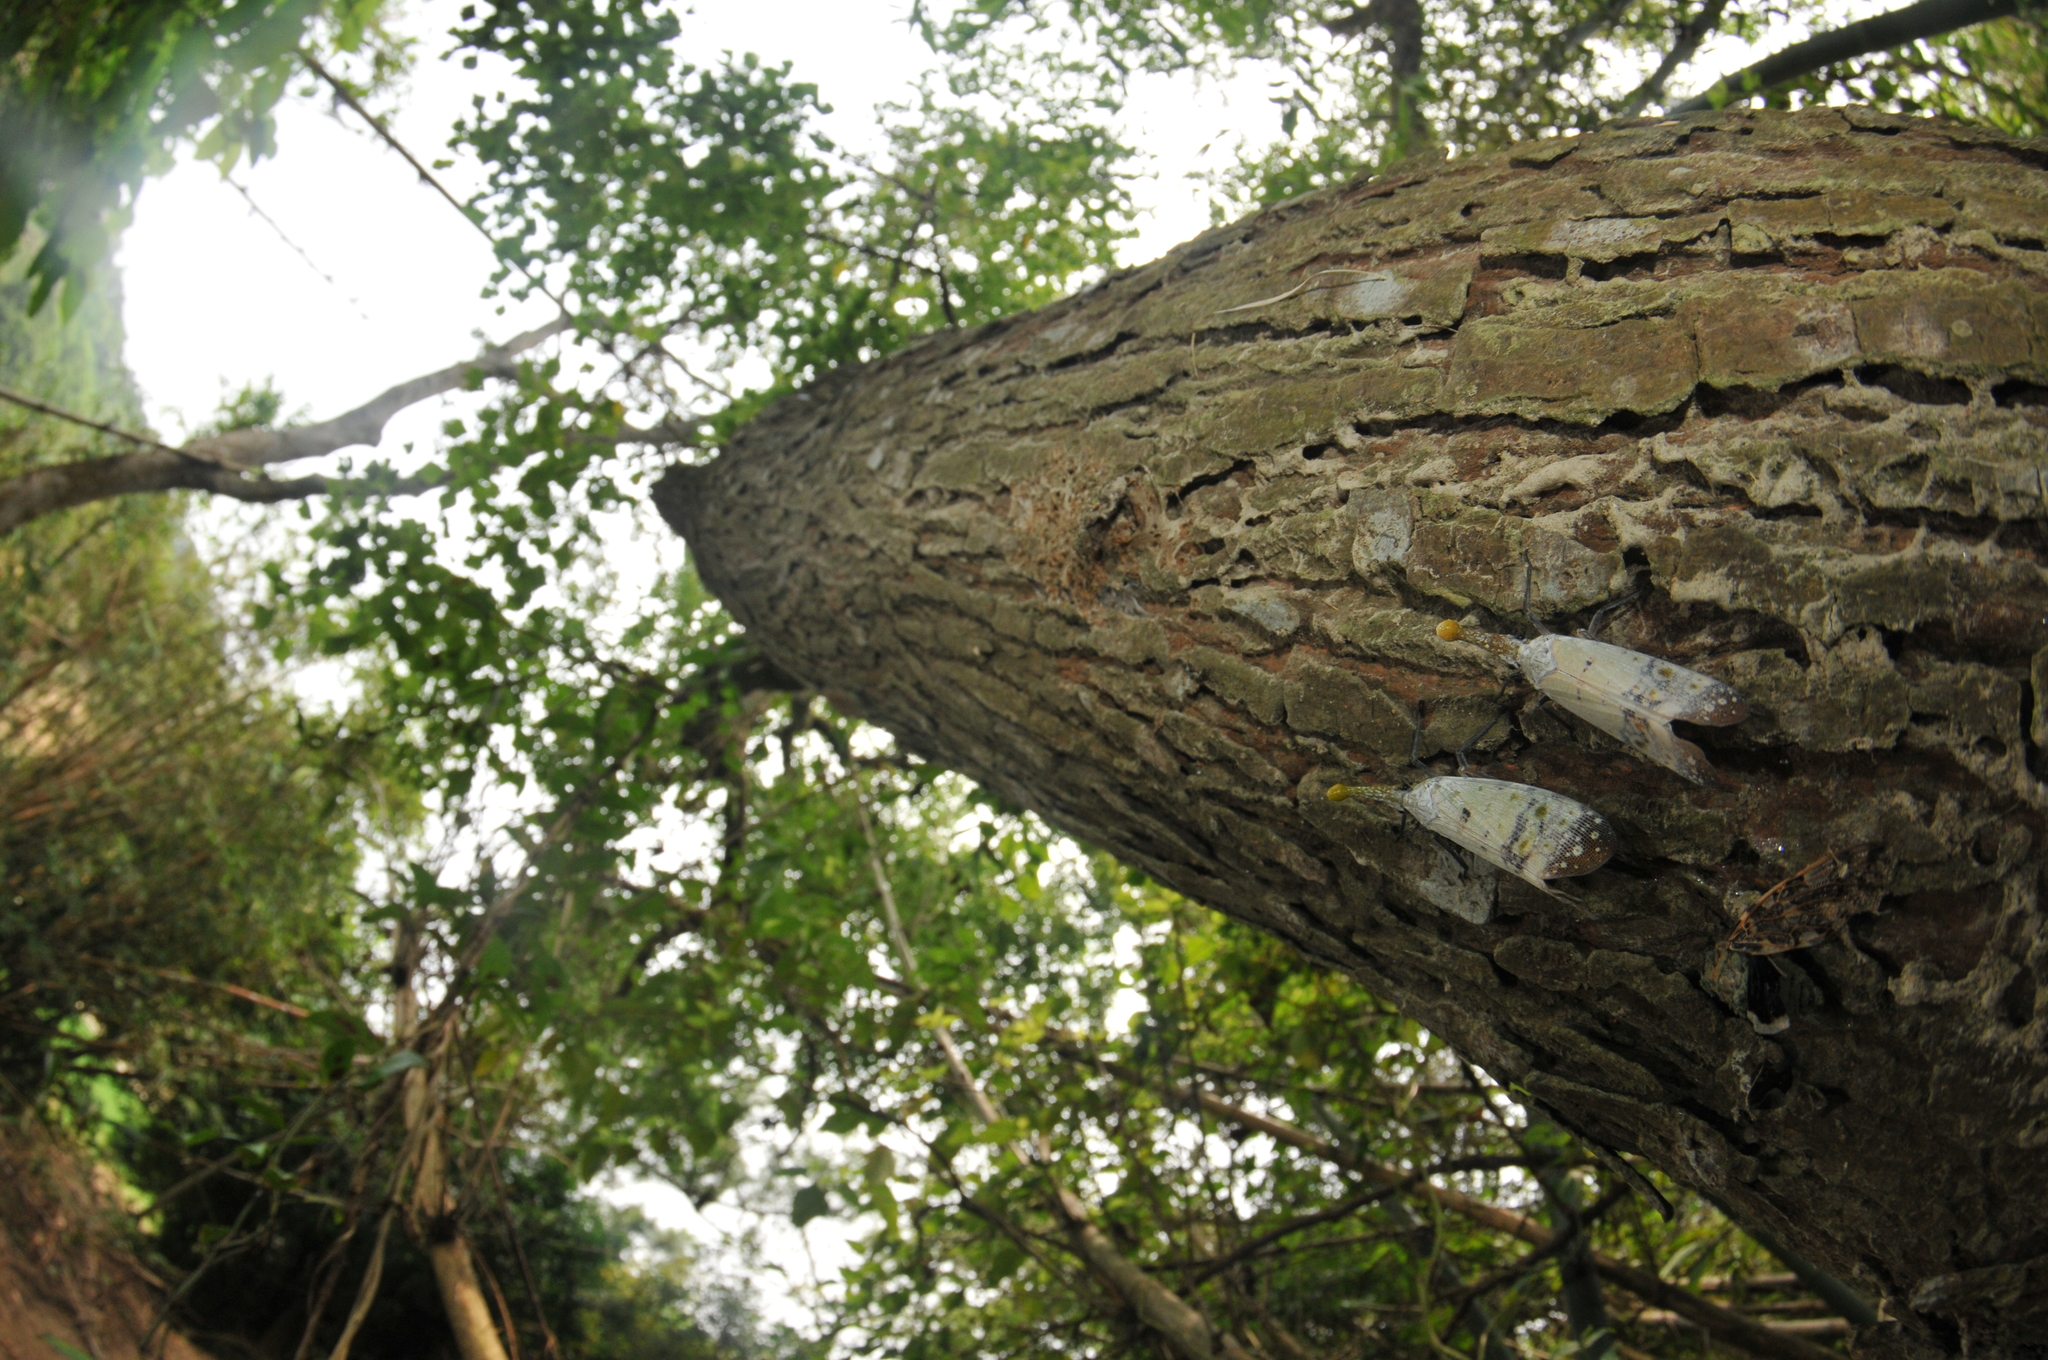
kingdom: Animalia
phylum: Arthropoda
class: Insecta
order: Hemiptera
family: Fulgoridae
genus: Pyrops
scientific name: Pyrops watanabei
